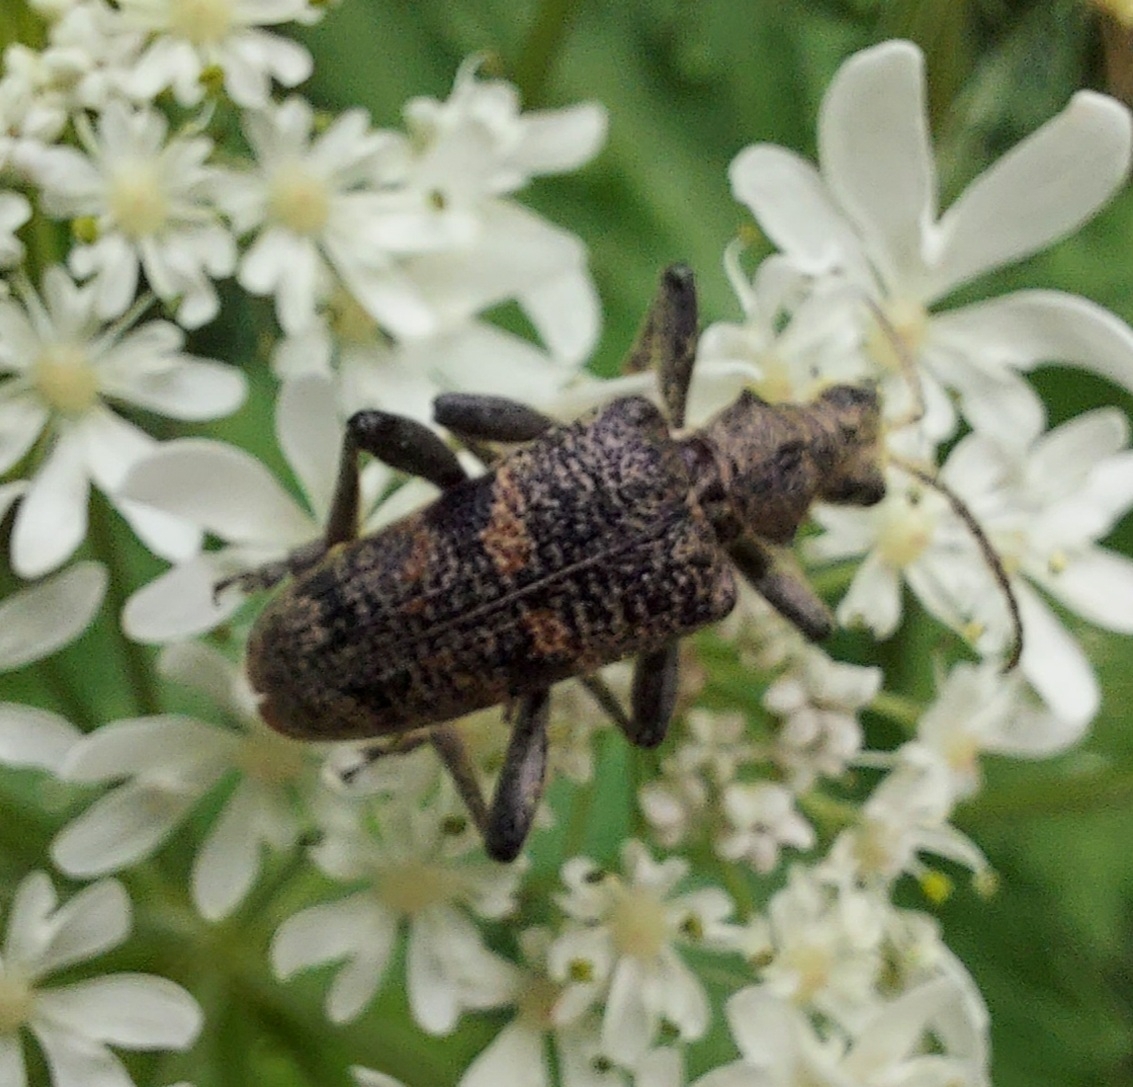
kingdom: Animalia
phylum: Arthropoda
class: Insecta
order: Coleoptera
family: Cerambycidae
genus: Rhagium
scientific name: Rhagium mordax
